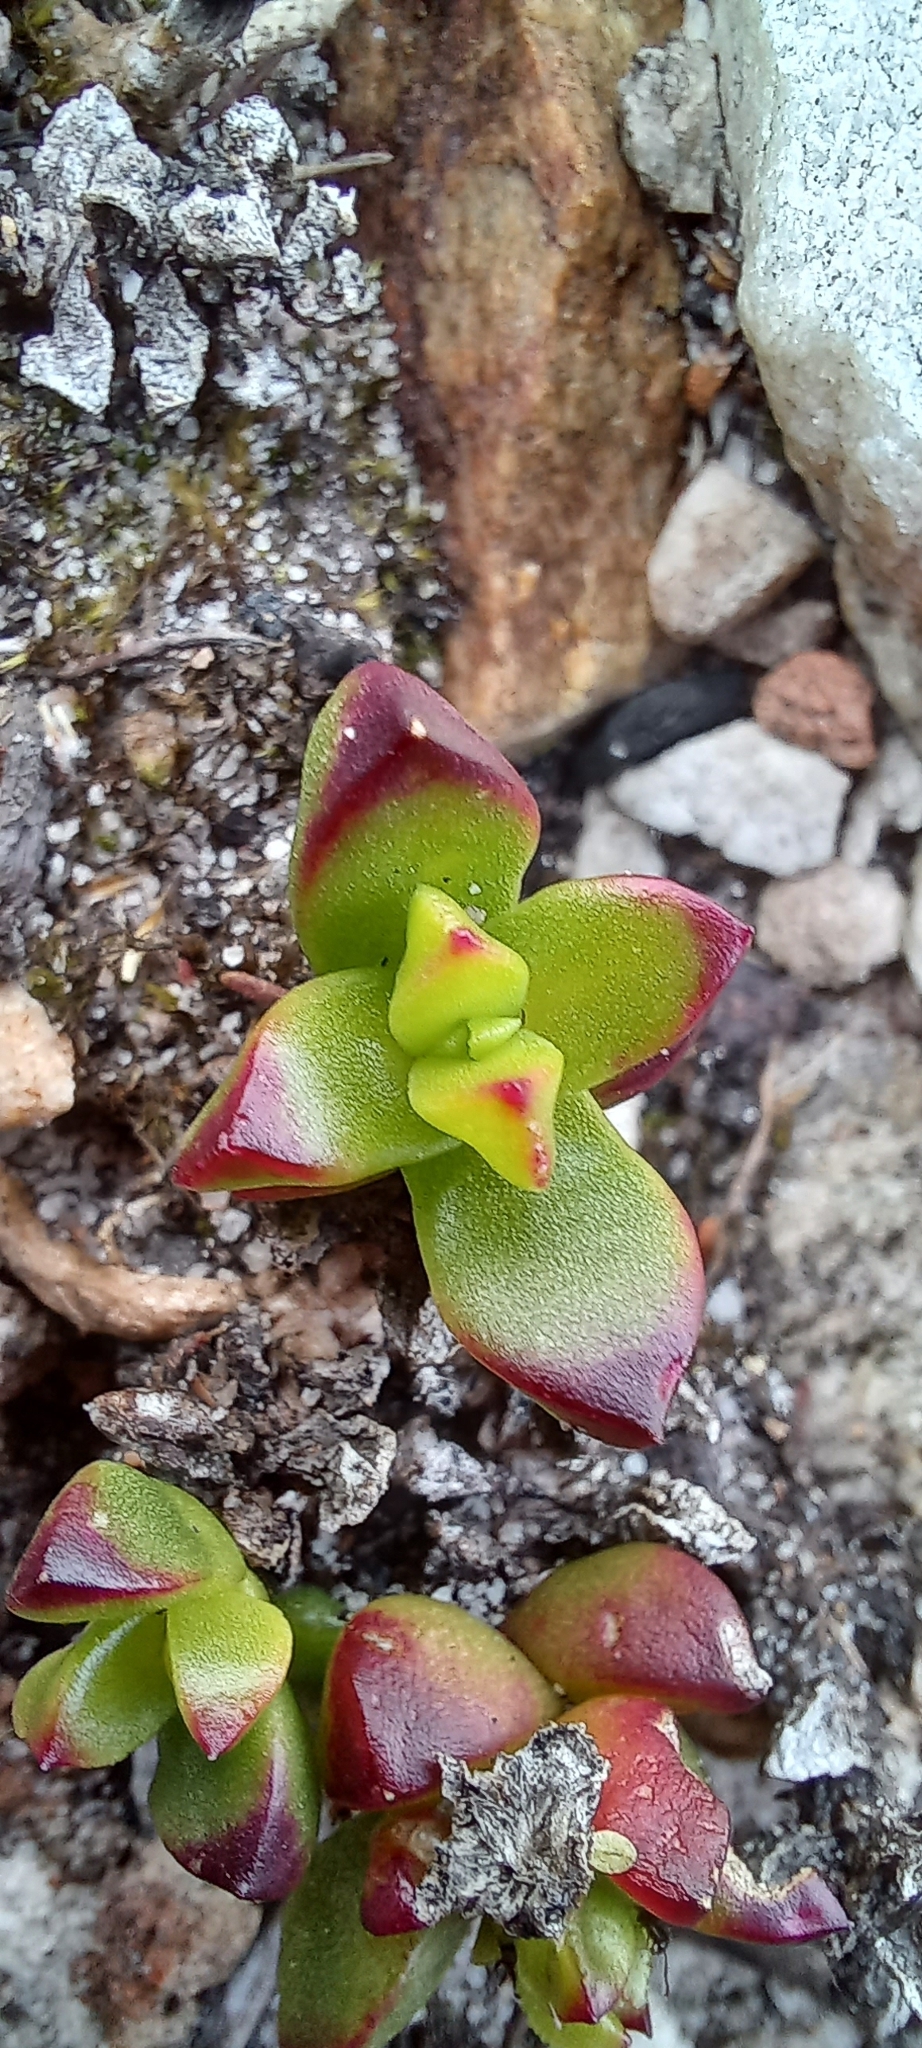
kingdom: Plantae
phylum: Tracheophyta
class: Magnoliopsida
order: Caryophyllales
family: Aizoaceae
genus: Erepsia
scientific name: Erepsia inclaudens
